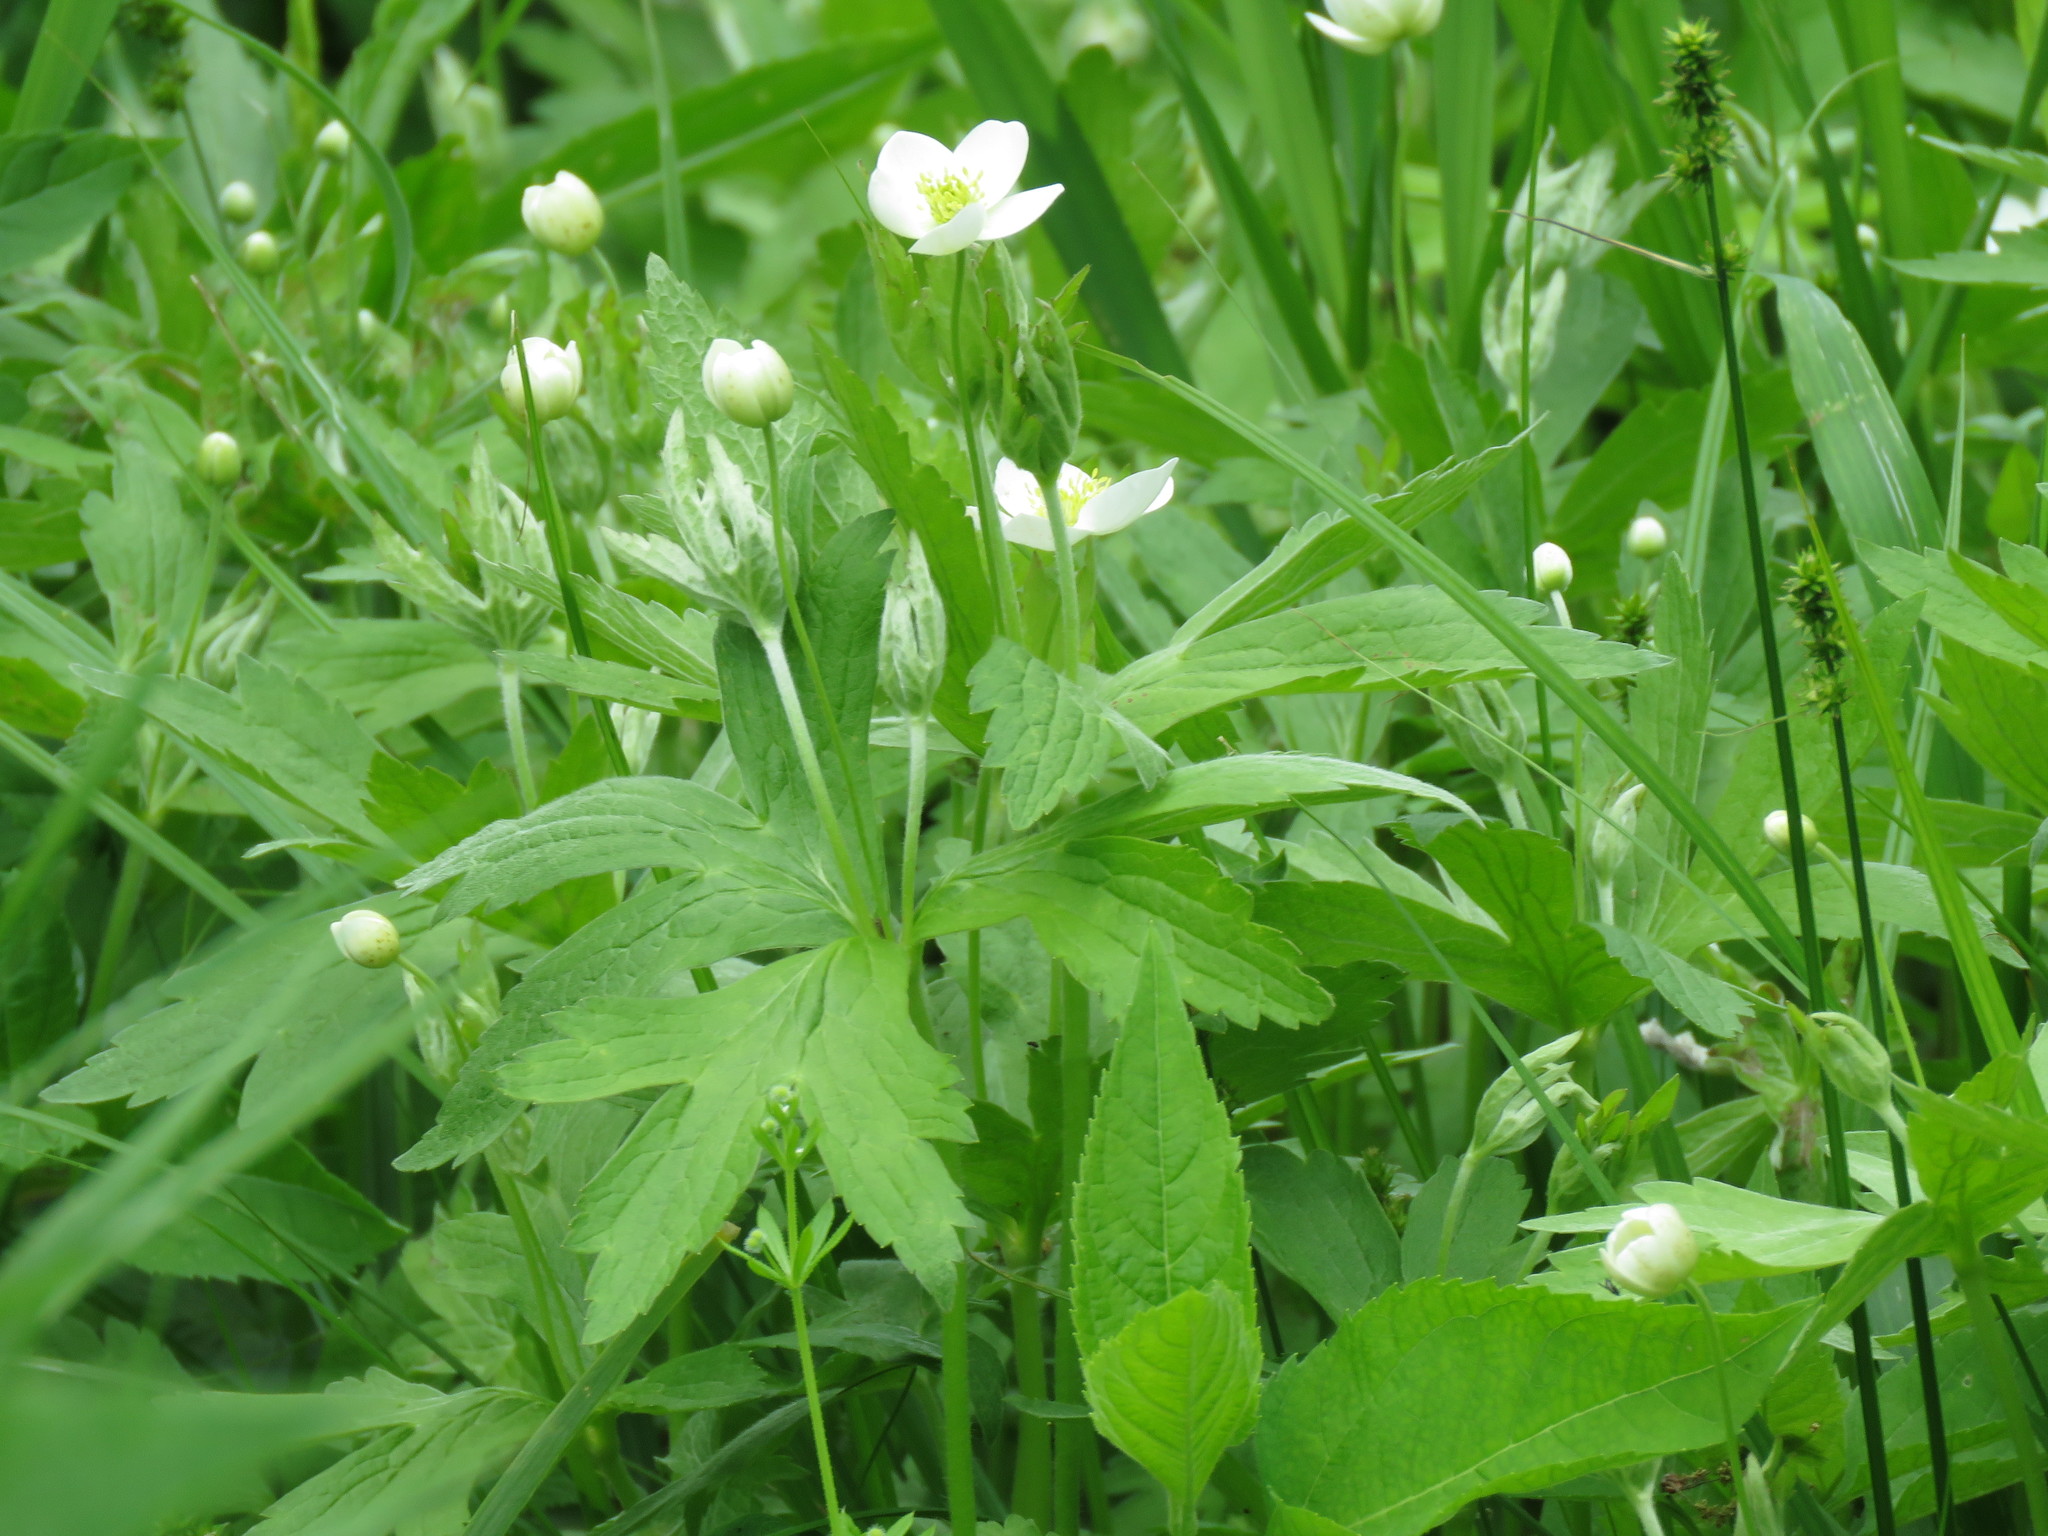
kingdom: Plantae
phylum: Tracheophyta
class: Magnoliopsida
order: Ranunculales
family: Ranunculaceae
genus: Anemonastrum
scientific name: Anemonastrum canadense
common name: Canada anemone
